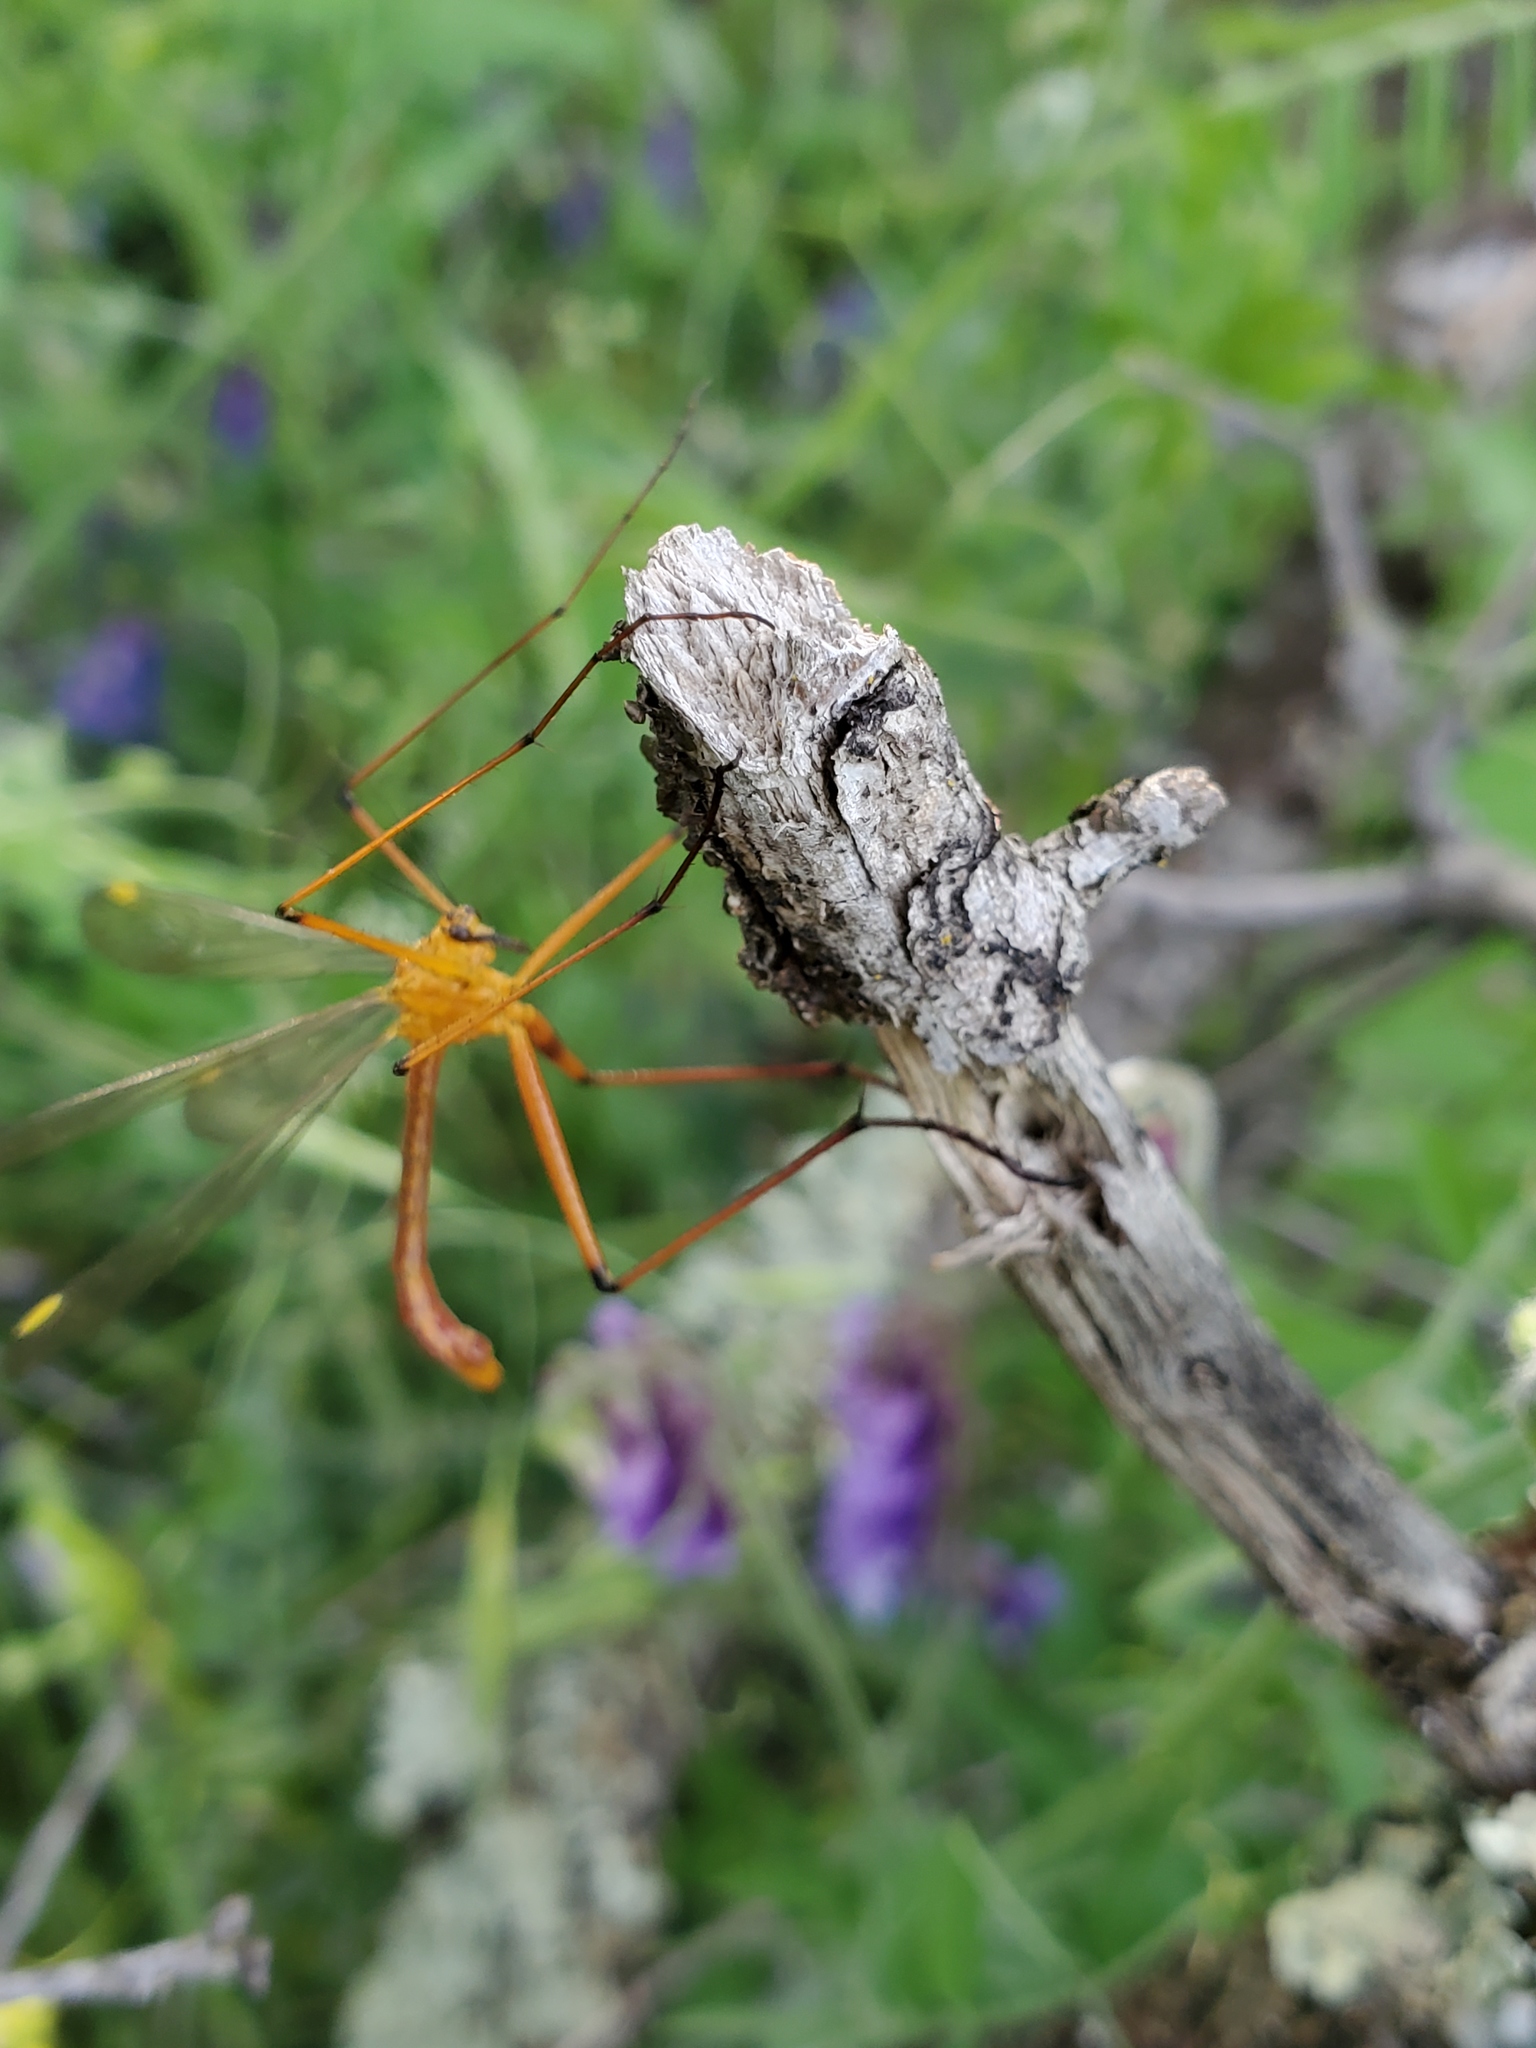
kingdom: Animalia
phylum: Arthropoda
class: Insecta
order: Mecoptera
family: Bittacidae
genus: Bittacus
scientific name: Bittacus chlorostigma
